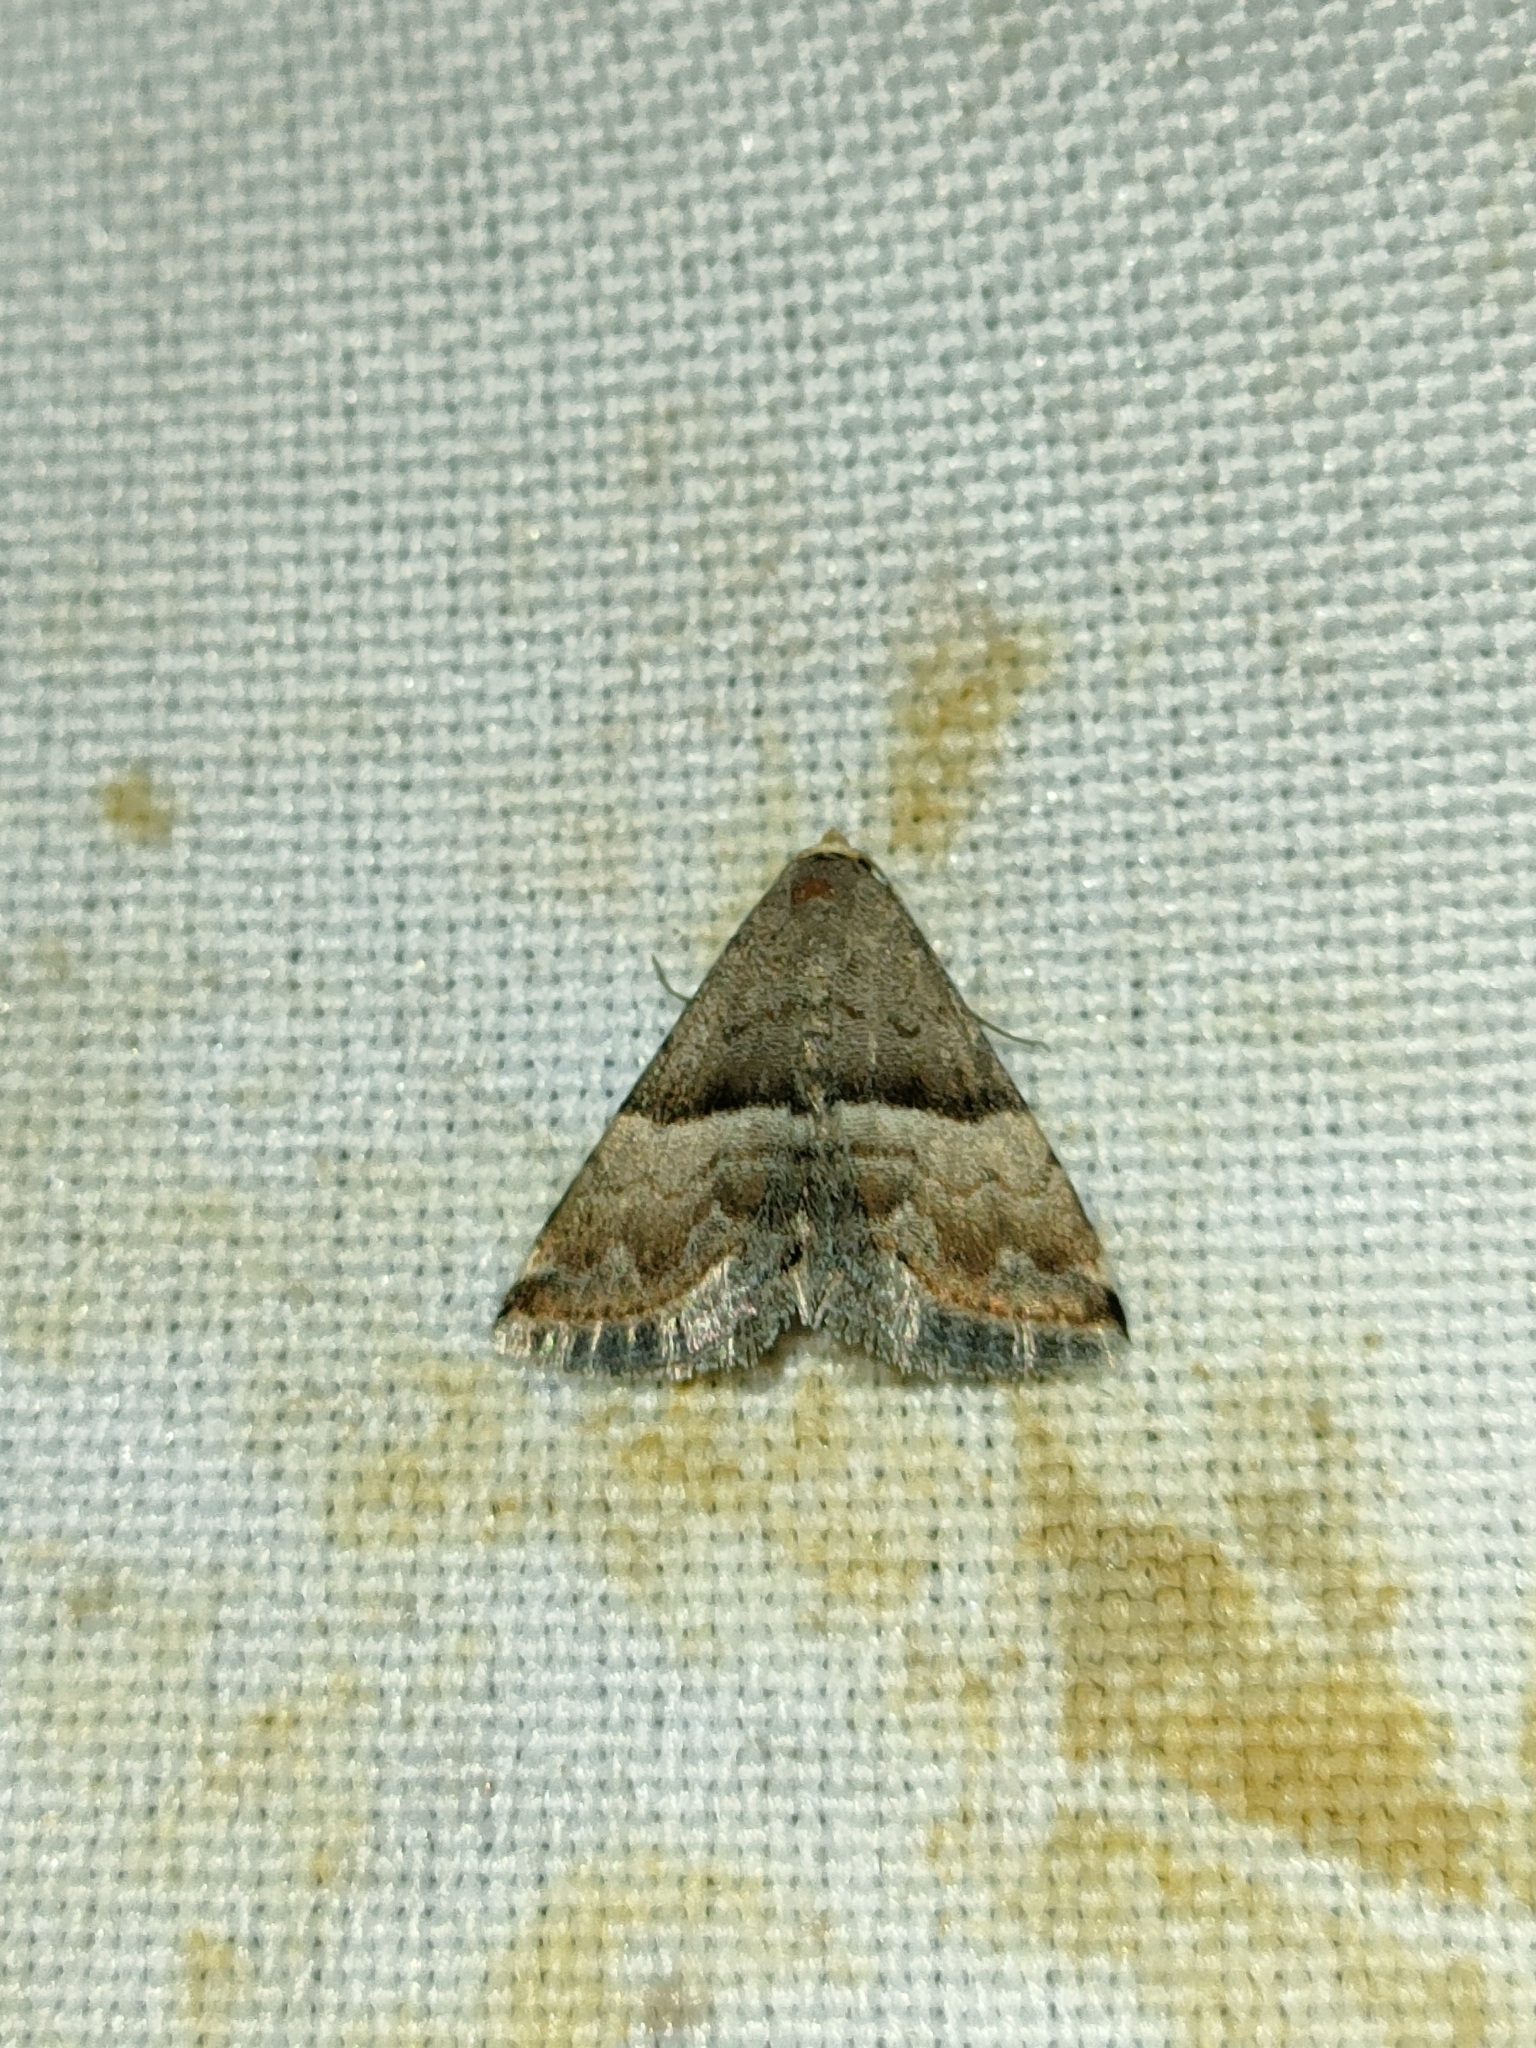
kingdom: Animalia
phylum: Arthropoda
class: Insecta
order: Lepidoptera
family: Noctuidae
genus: Odice
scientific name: Odice jucunda
